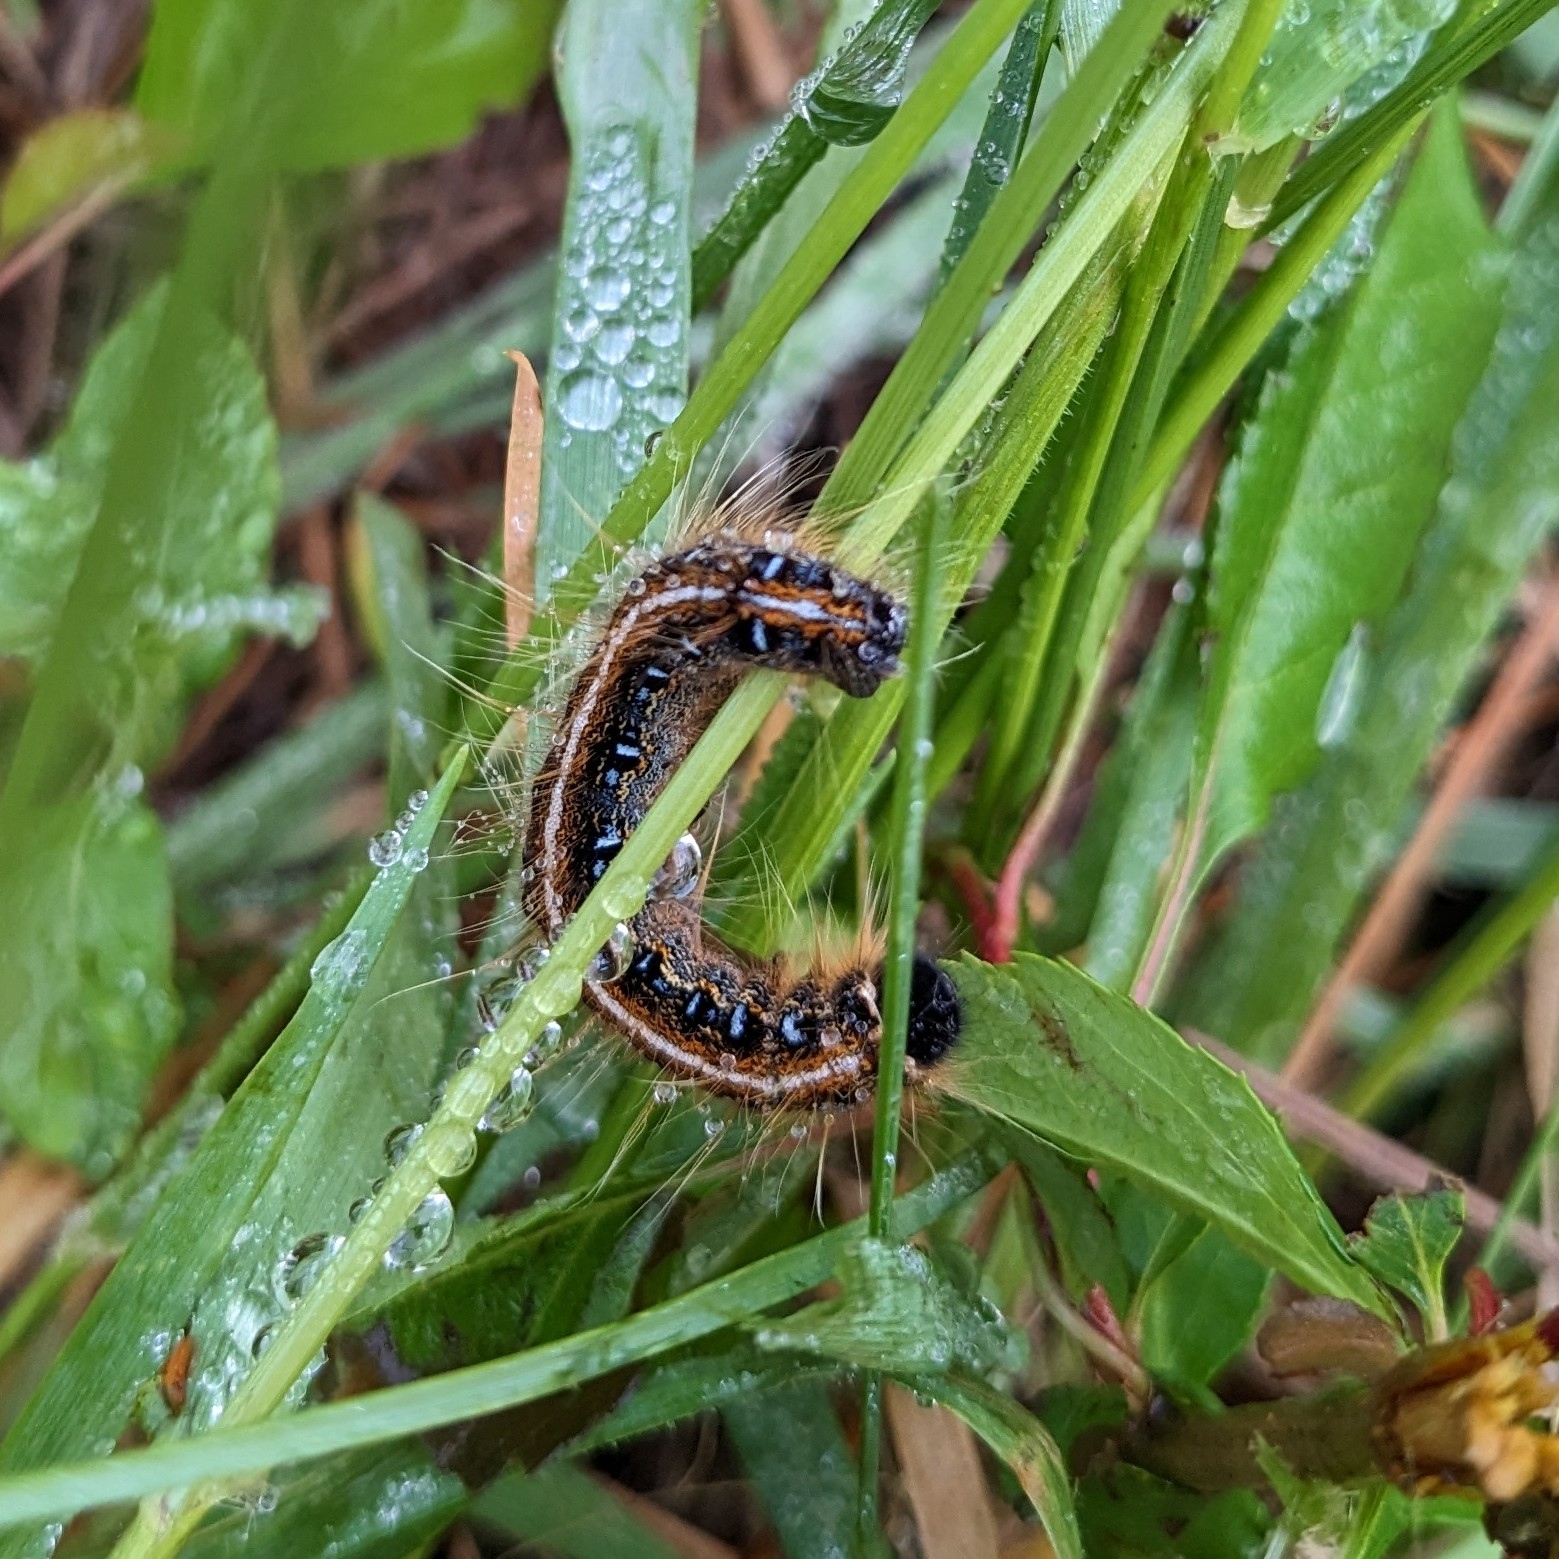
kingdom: Animalia
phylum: Arthropoda
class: Insecta
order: Lepidoptera
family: Lasiocampidae
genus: Malacosoma
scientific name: Malacosoma americana
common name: Eastern tent caterpillar moth
